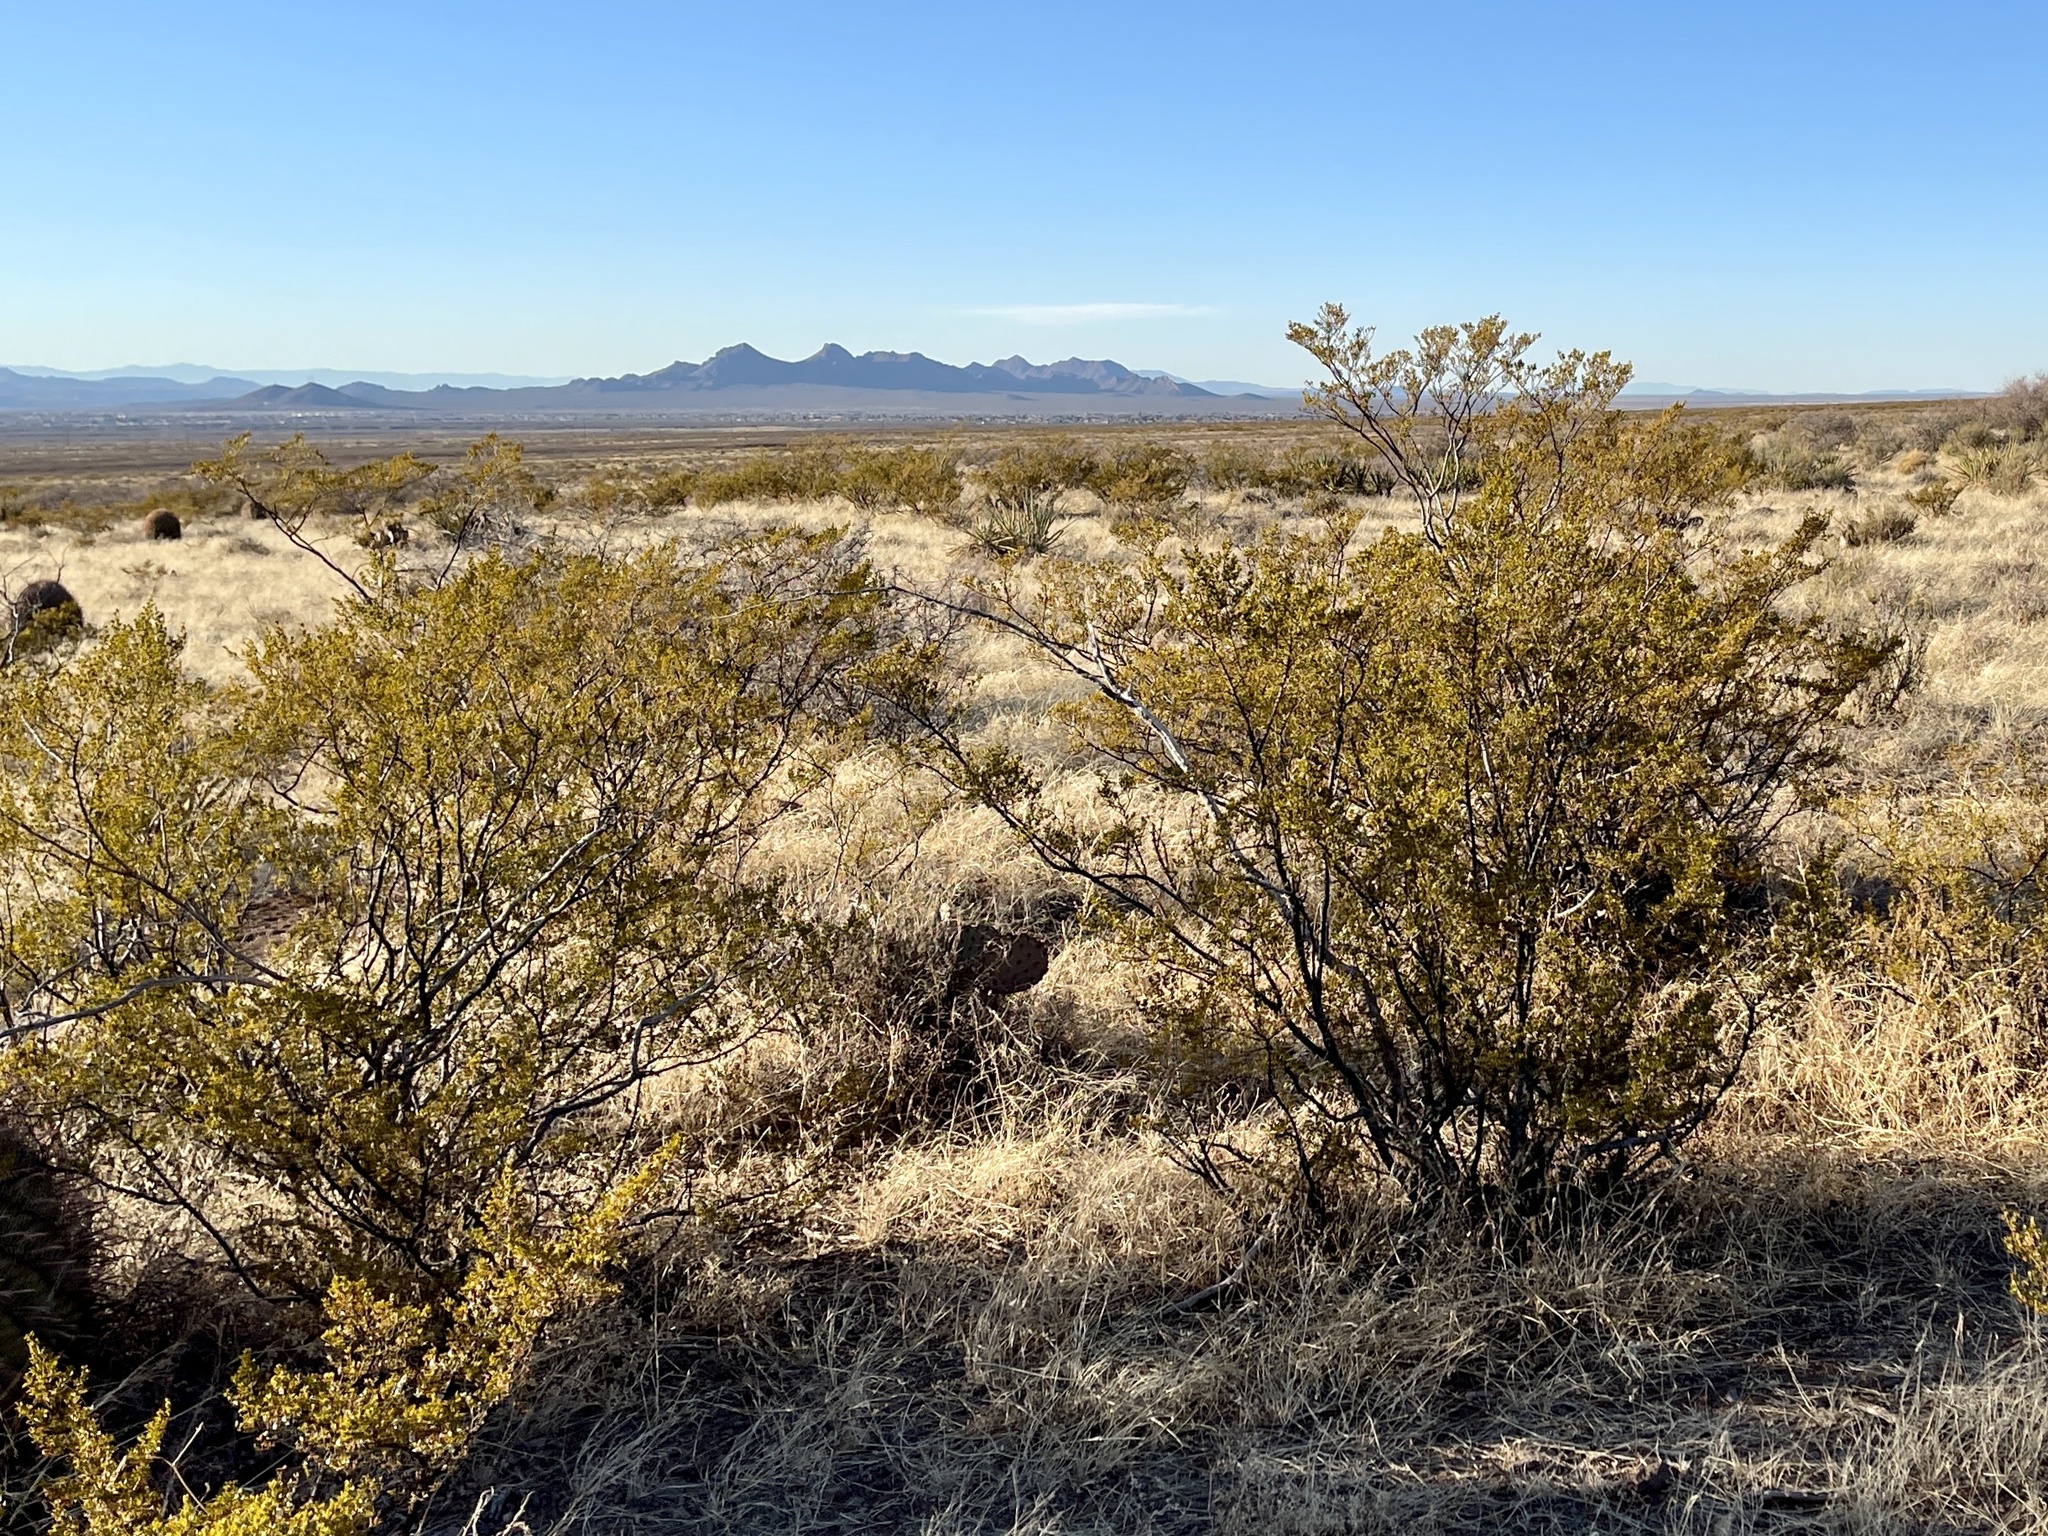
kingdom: Plantae
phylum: Tracheophyta
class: Magnoliopsida
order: Zygophyllales
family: Zygophyllaceae
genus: Larrea
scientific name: Larrea tridentata
